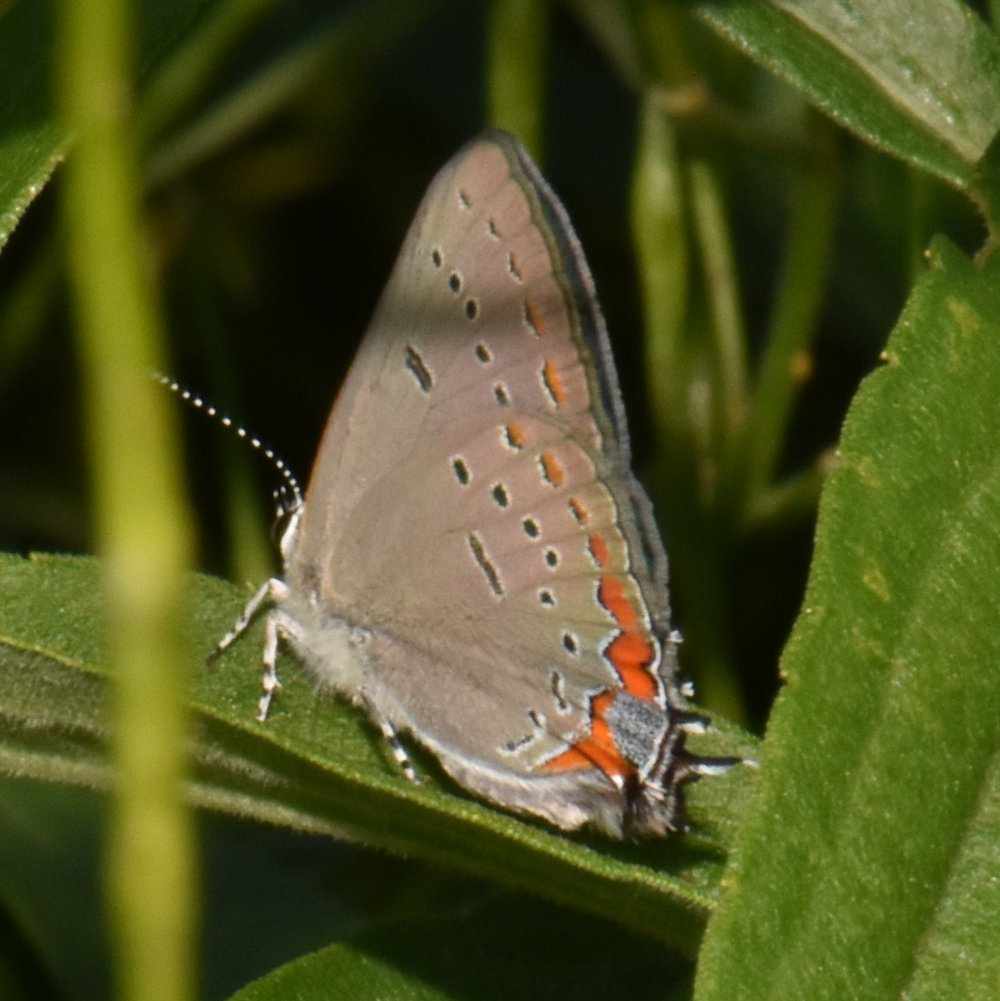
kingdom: Animalia
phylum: Arthropoda
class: Insecta
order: Lepidoptera
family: Lycaenidae
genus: Strymon
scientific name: Strymon acadica
